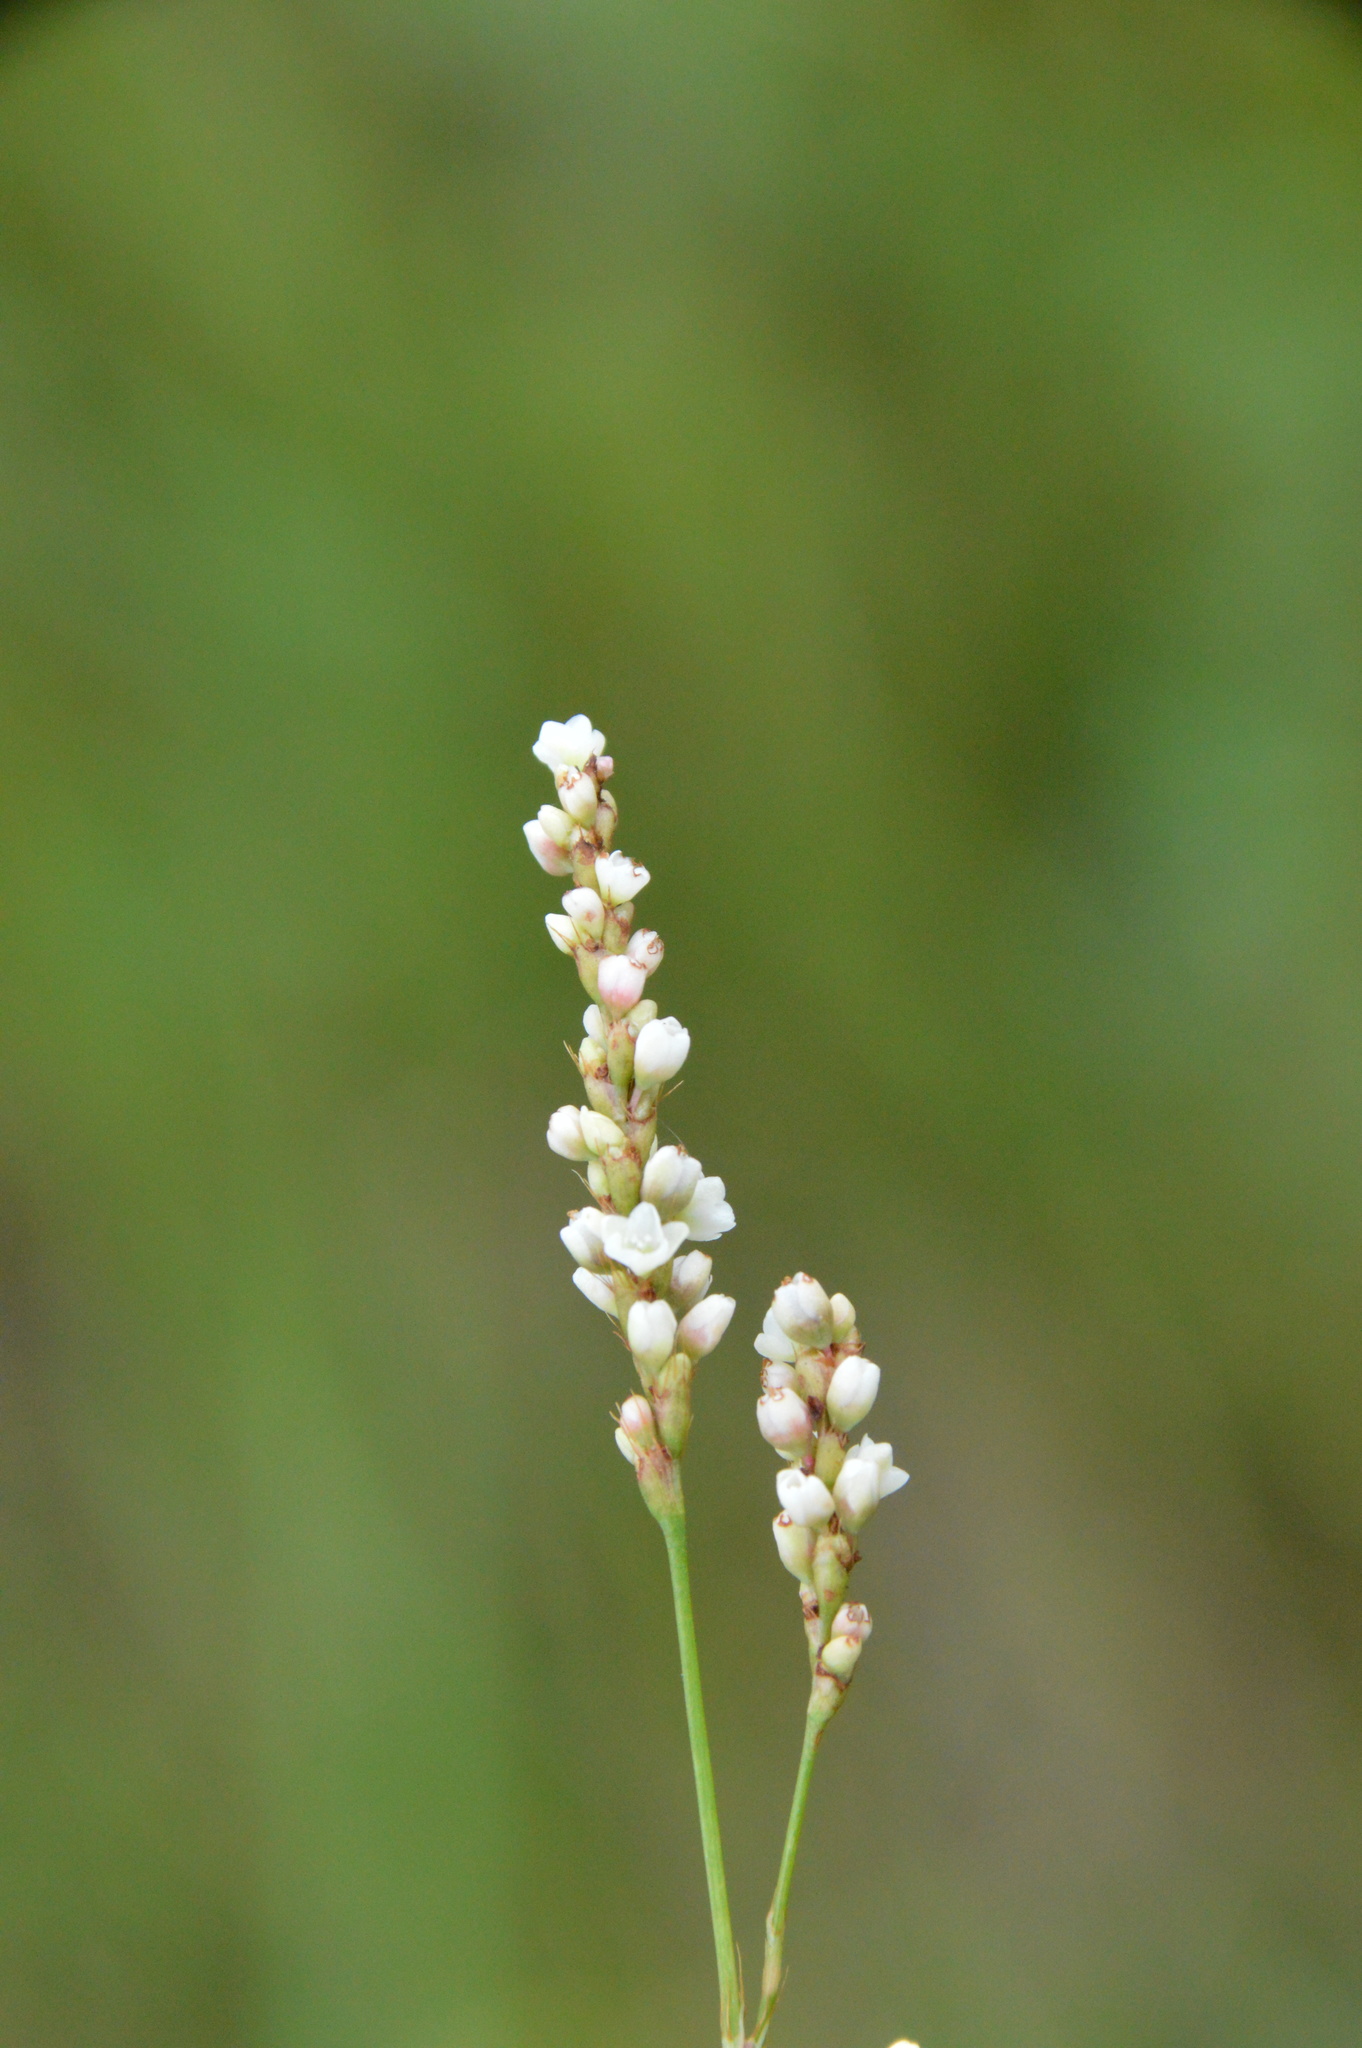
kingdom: Plantae
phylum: Tracheophyta
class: Magnoliopsida
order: Caryophyllales
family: Polygonaceae
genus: Persicaria
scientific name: Persicaria hydropiperoides
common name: Swamp smartweed
